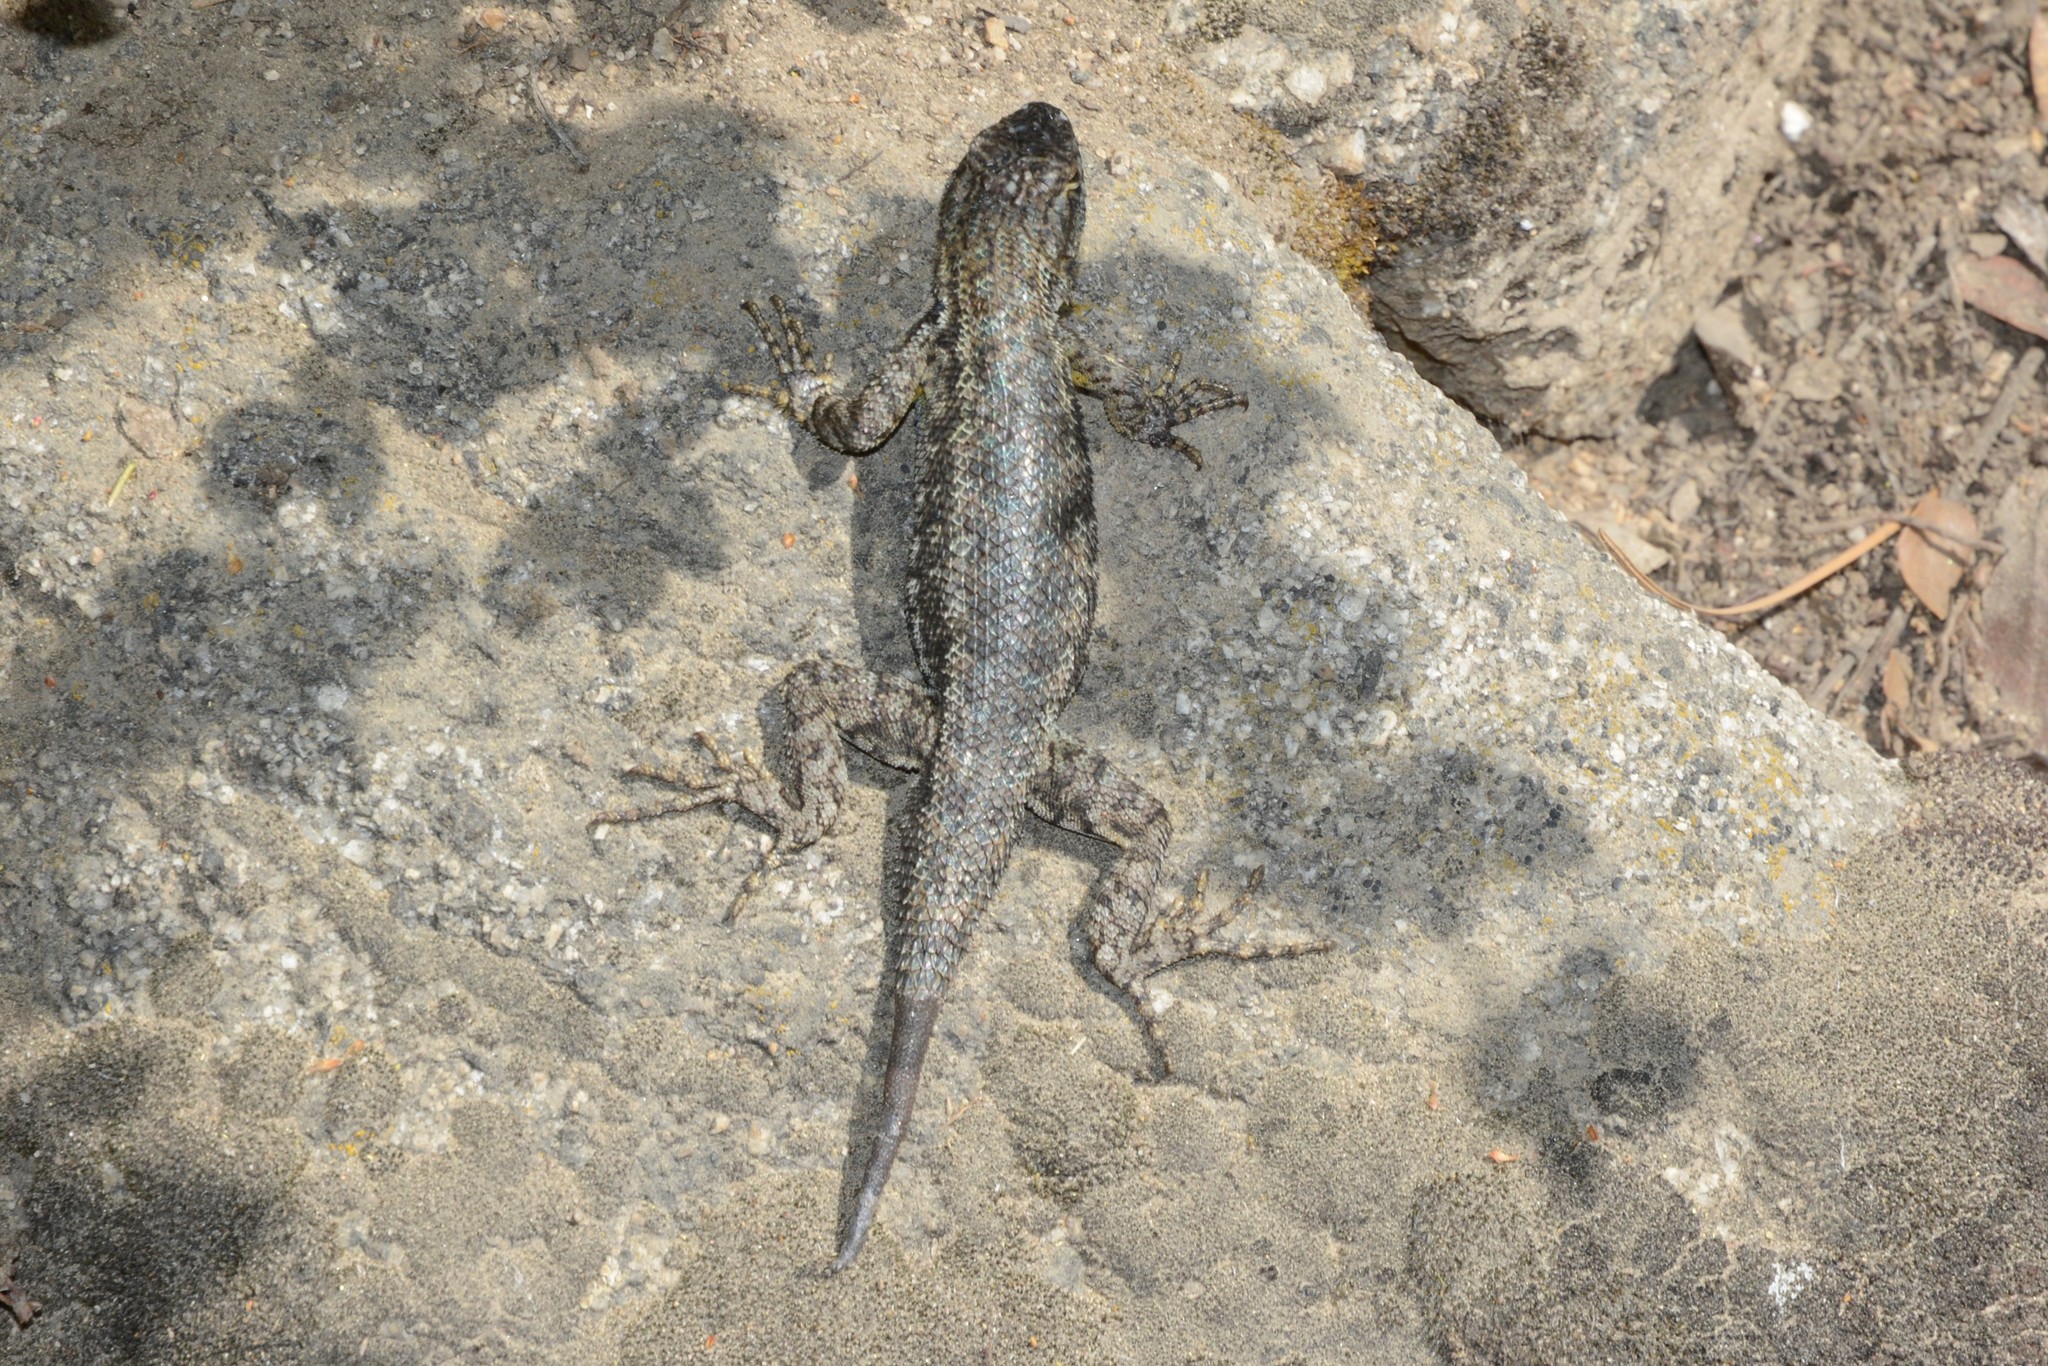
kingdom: Animalia
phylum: Chordata
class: Squamata
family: Phrynosomatidae
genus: Sceloporus
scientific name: Sceloporus occidentalis
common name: Western fence lizard
